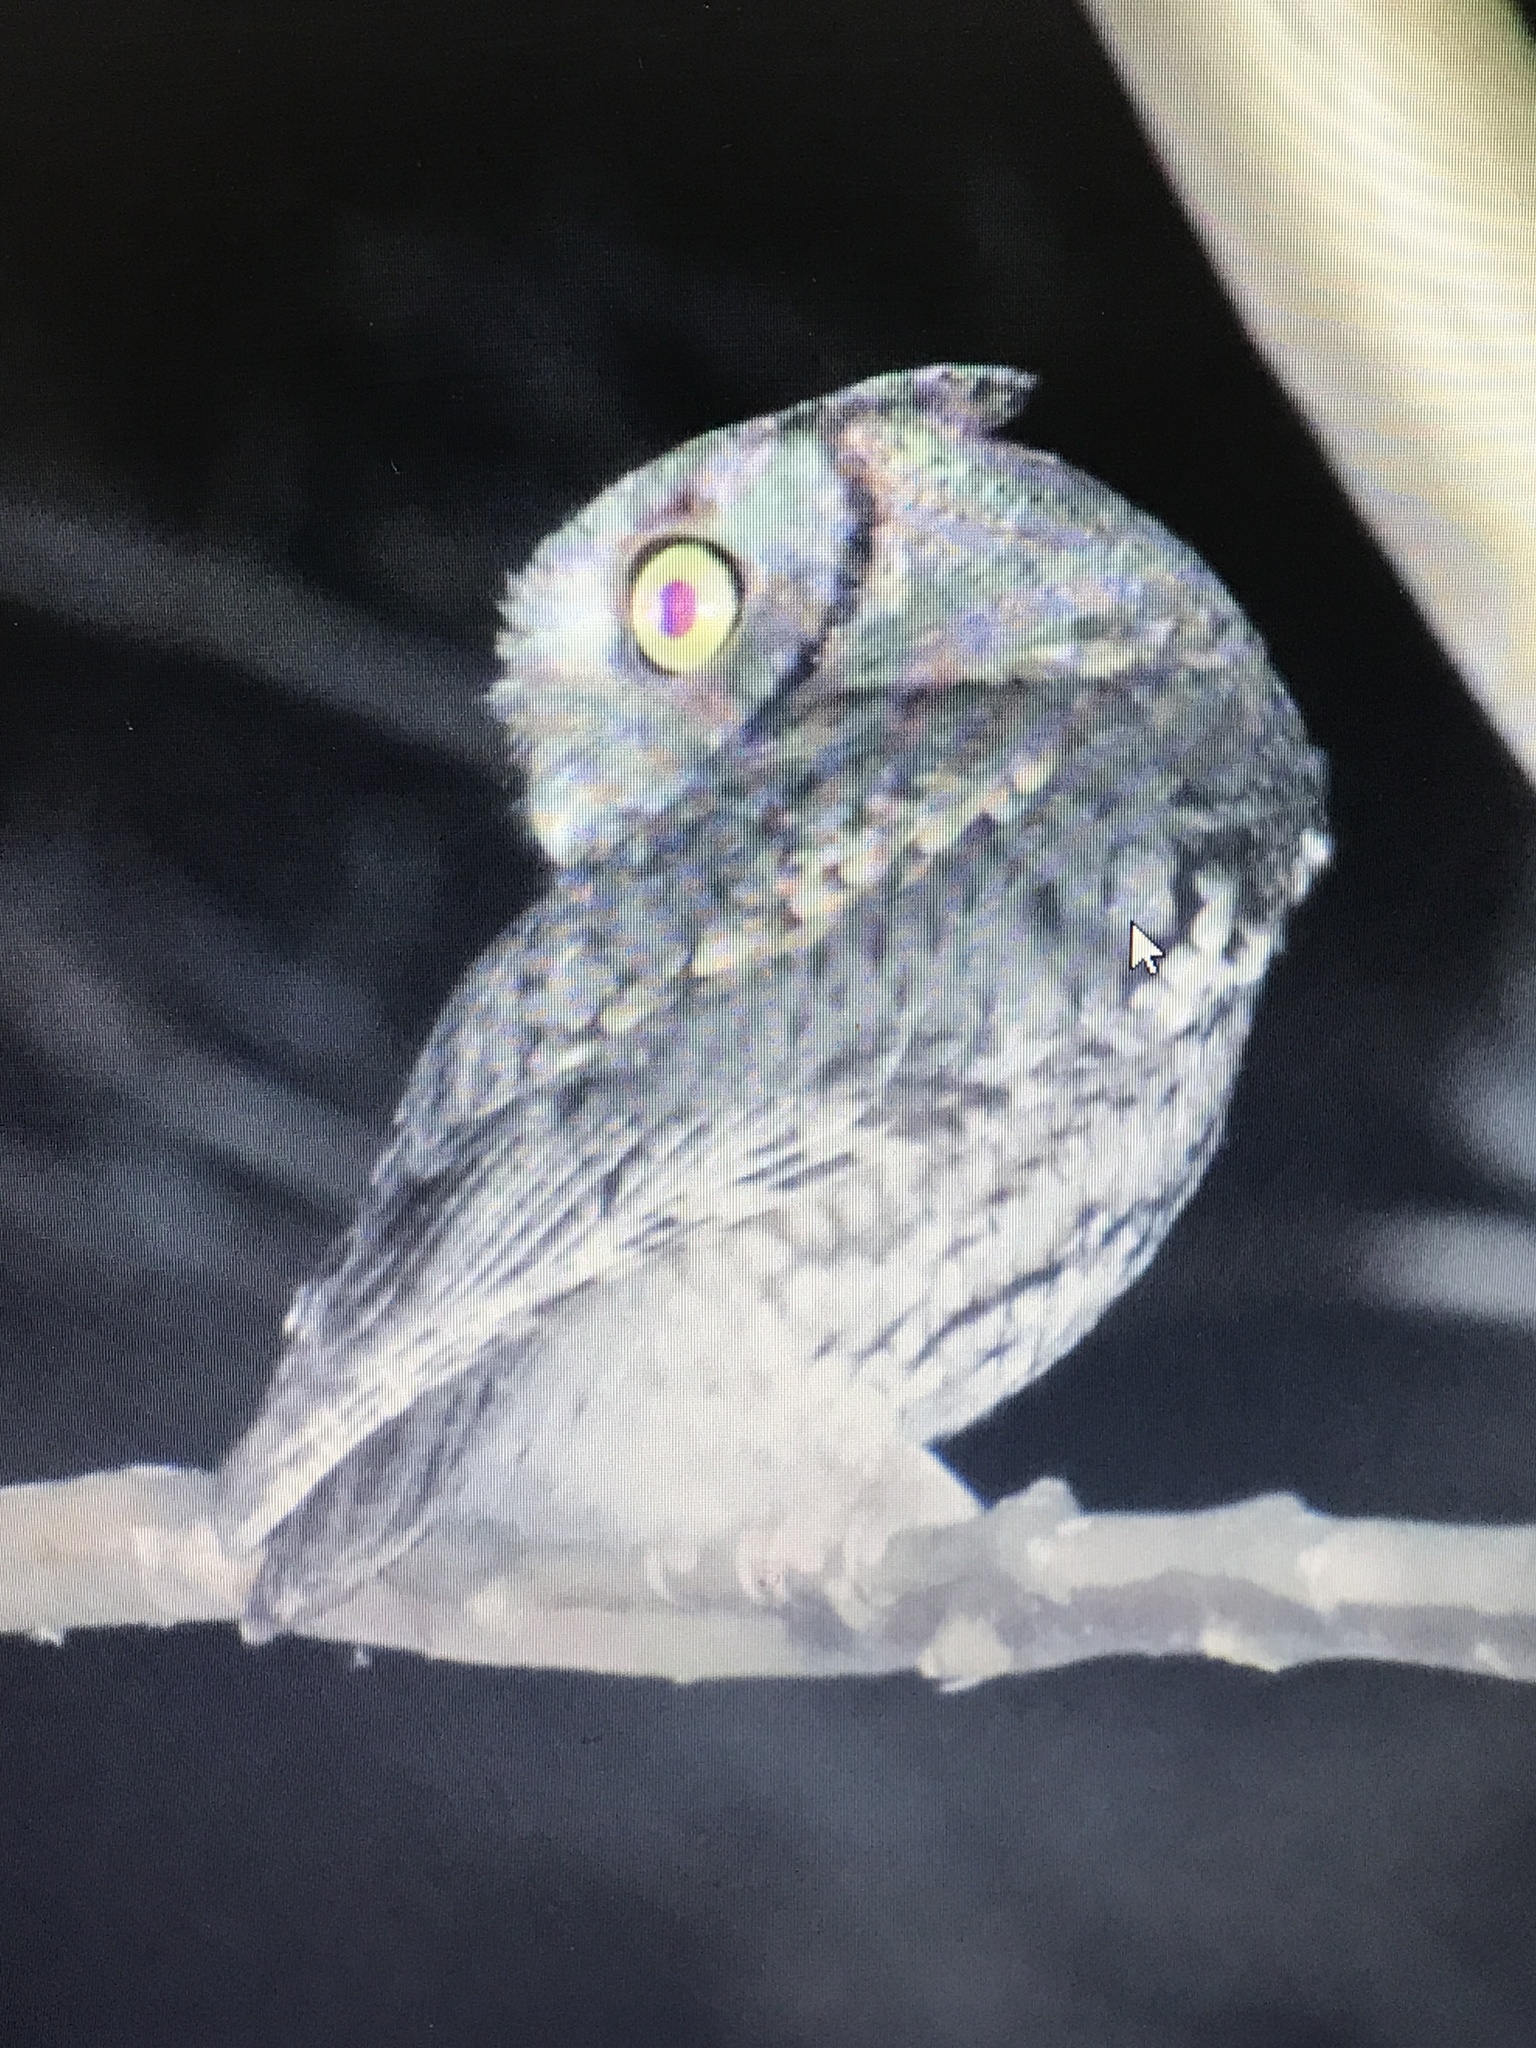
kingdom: Animalia
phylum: Chordata
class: Aves
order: Strigiformes
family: Strigidae
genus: Megascops
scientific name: Megascops asio
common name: Eastern screech-owl
